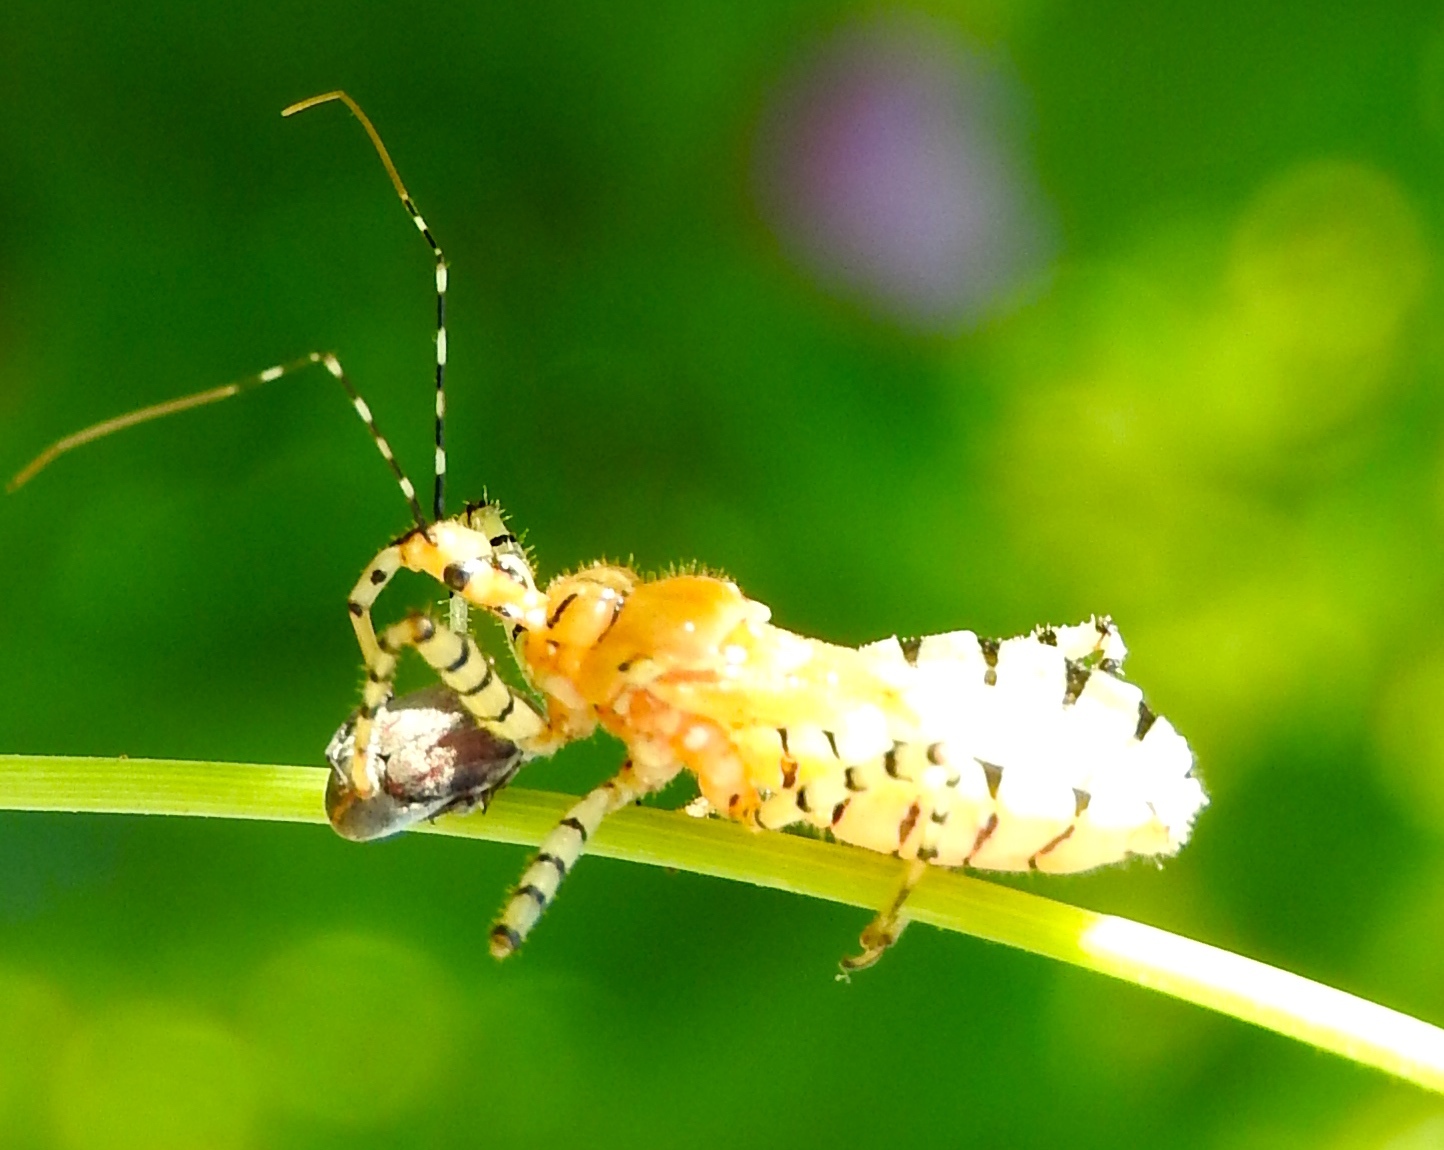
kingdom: Animalia
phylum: Arthropoda
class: Insecta
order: Hemiptera
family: Reduviidae
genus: Pselliopus
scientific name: Pselliopus latispina
